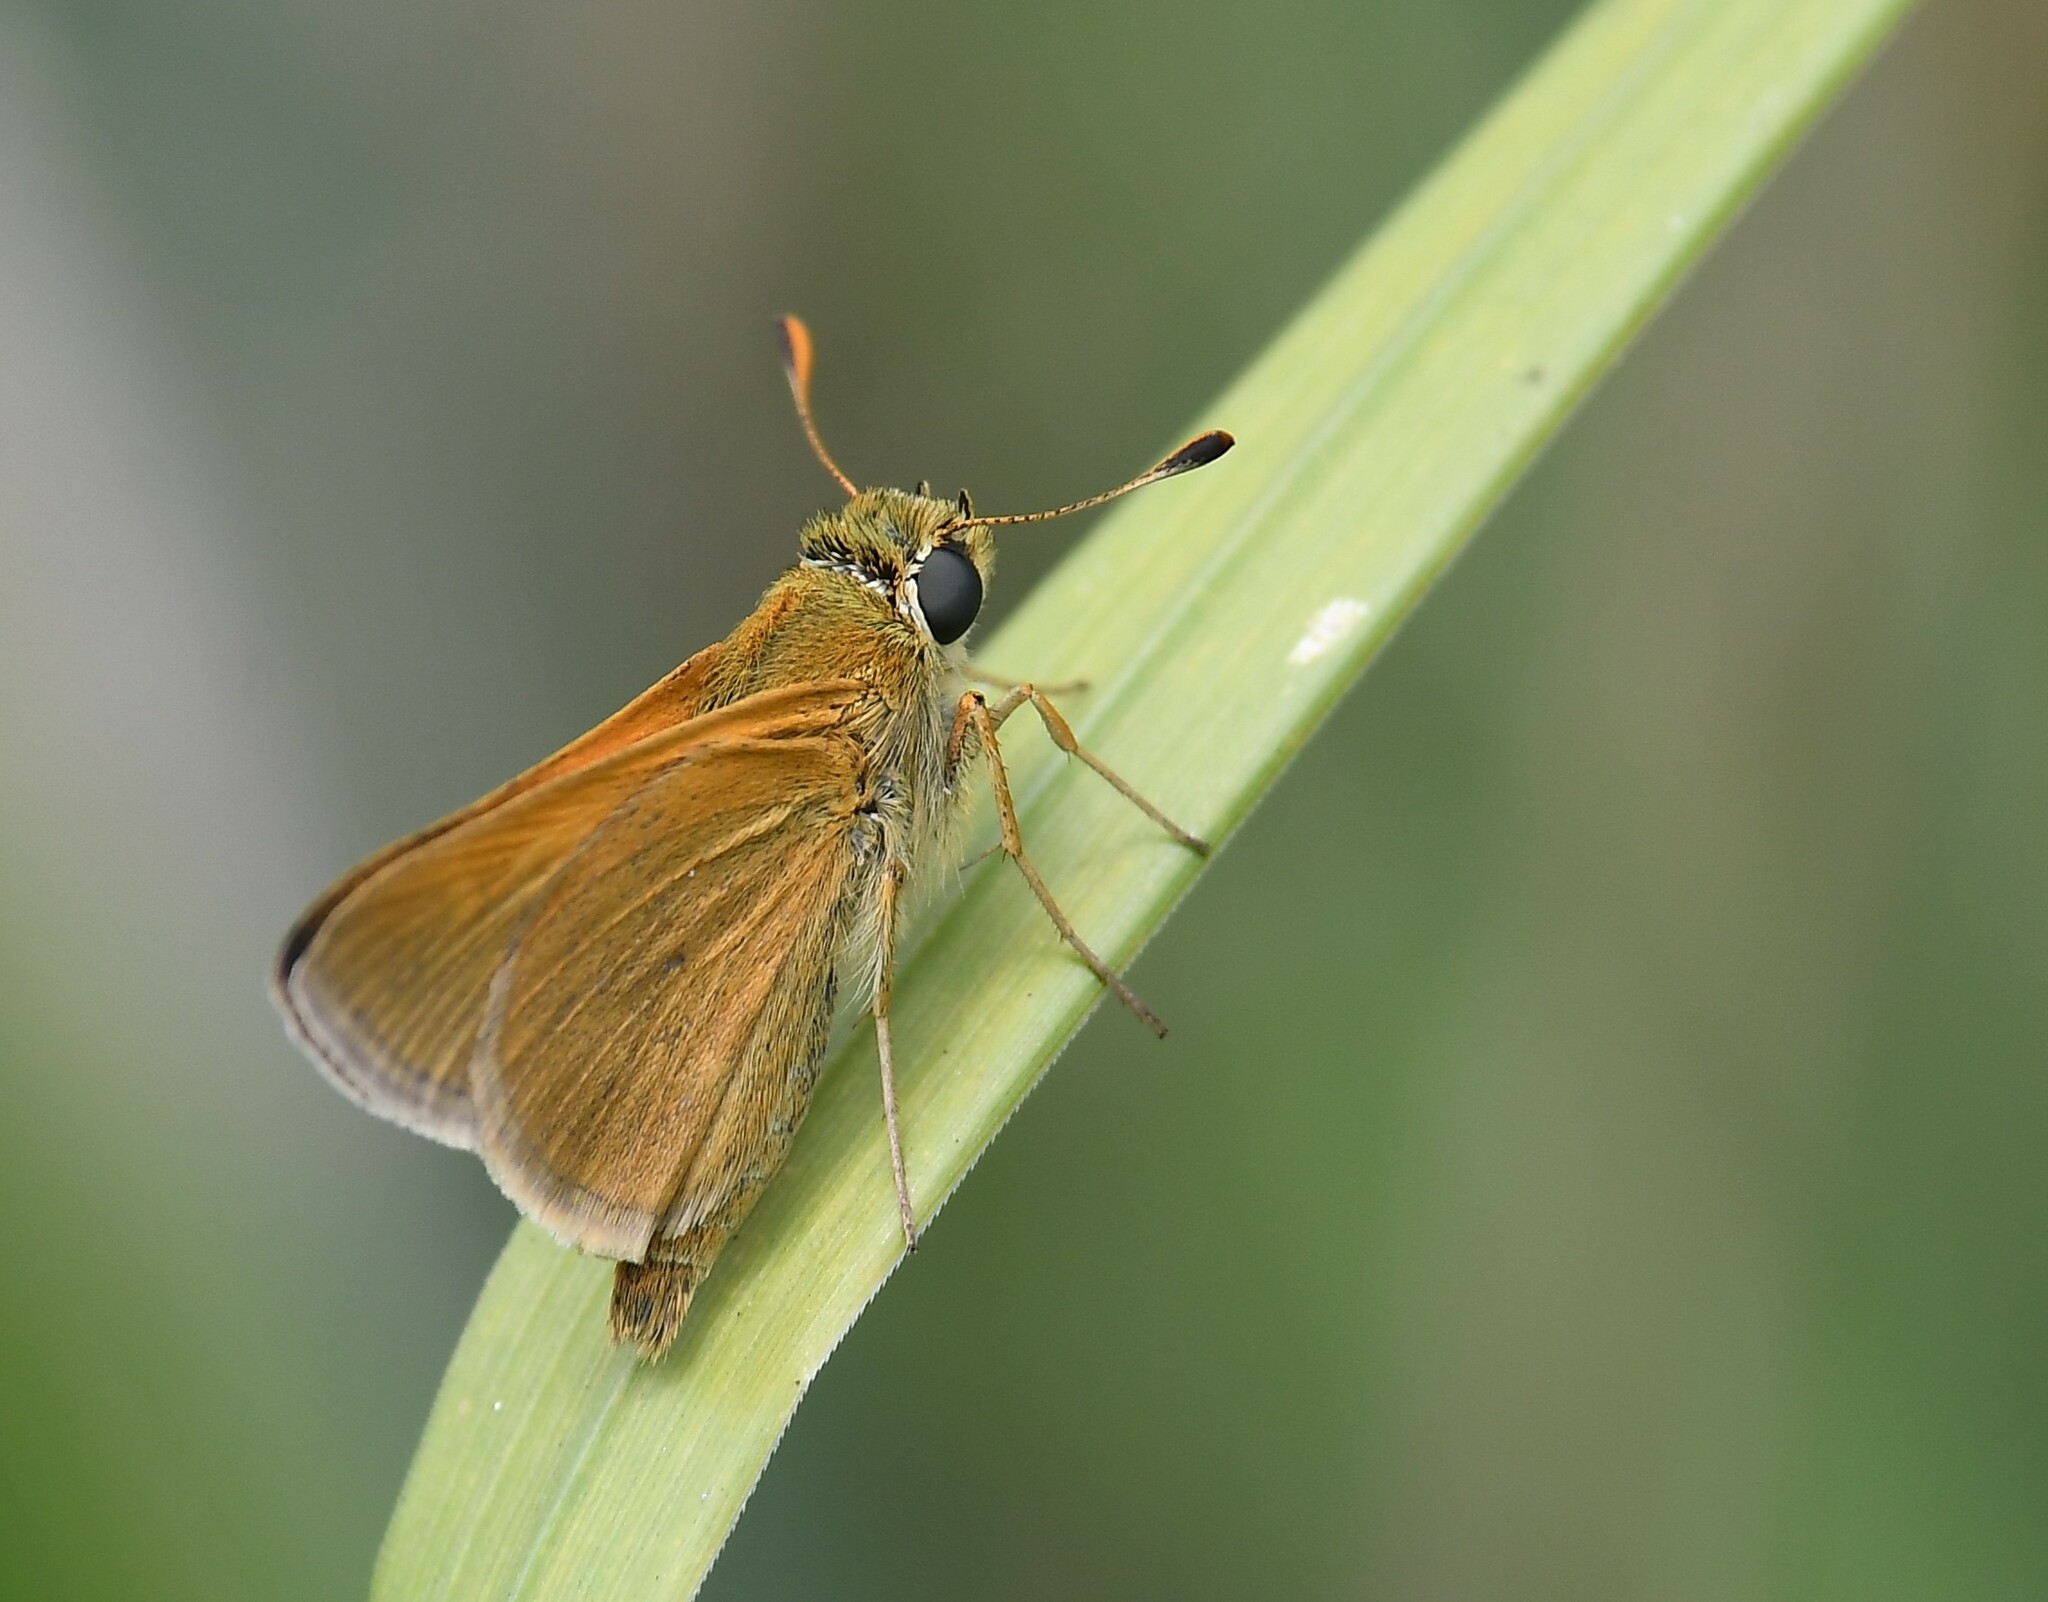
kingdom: Animalia
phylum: Arthropoda
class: Insecta
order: Lepidoptera
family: Hesperiidae
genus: Atrytone
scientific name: Atrytone delaware
